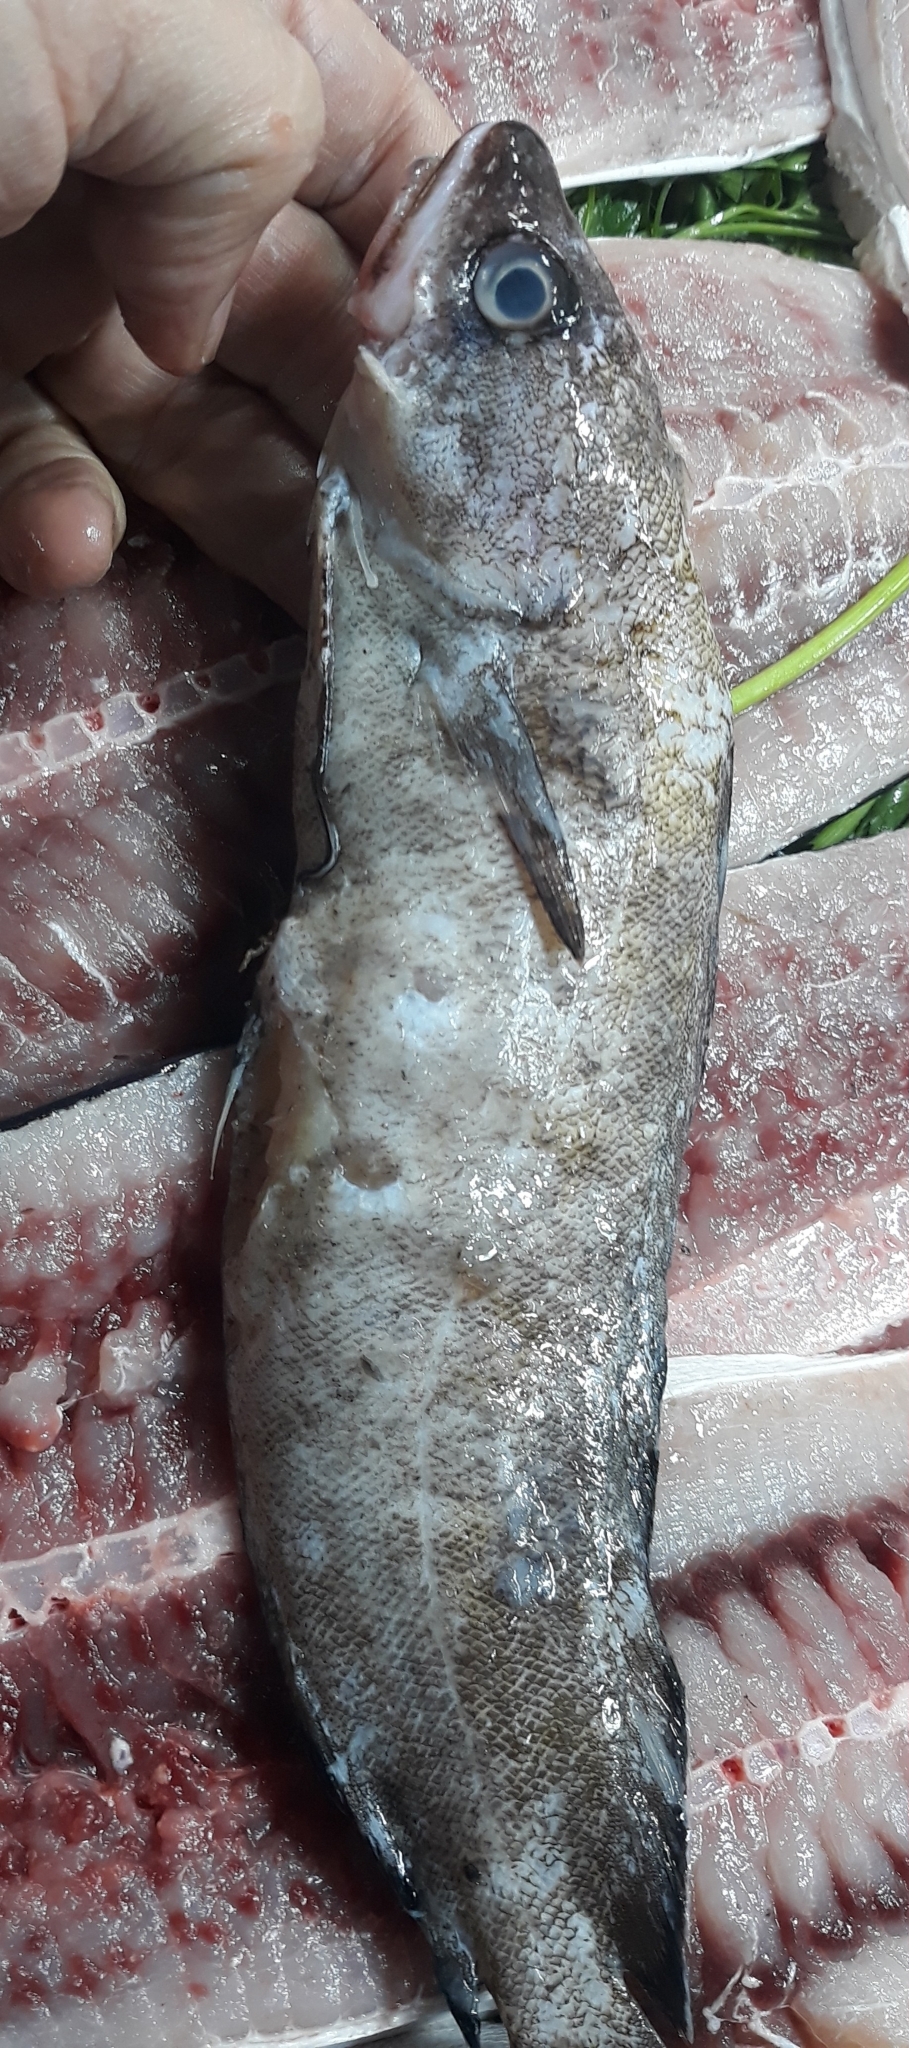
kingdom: Animalia
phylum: Chordata
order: Gadiformes
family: Phycidae
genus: Phycis
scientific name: Phycis phycis
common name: Forkbeard
